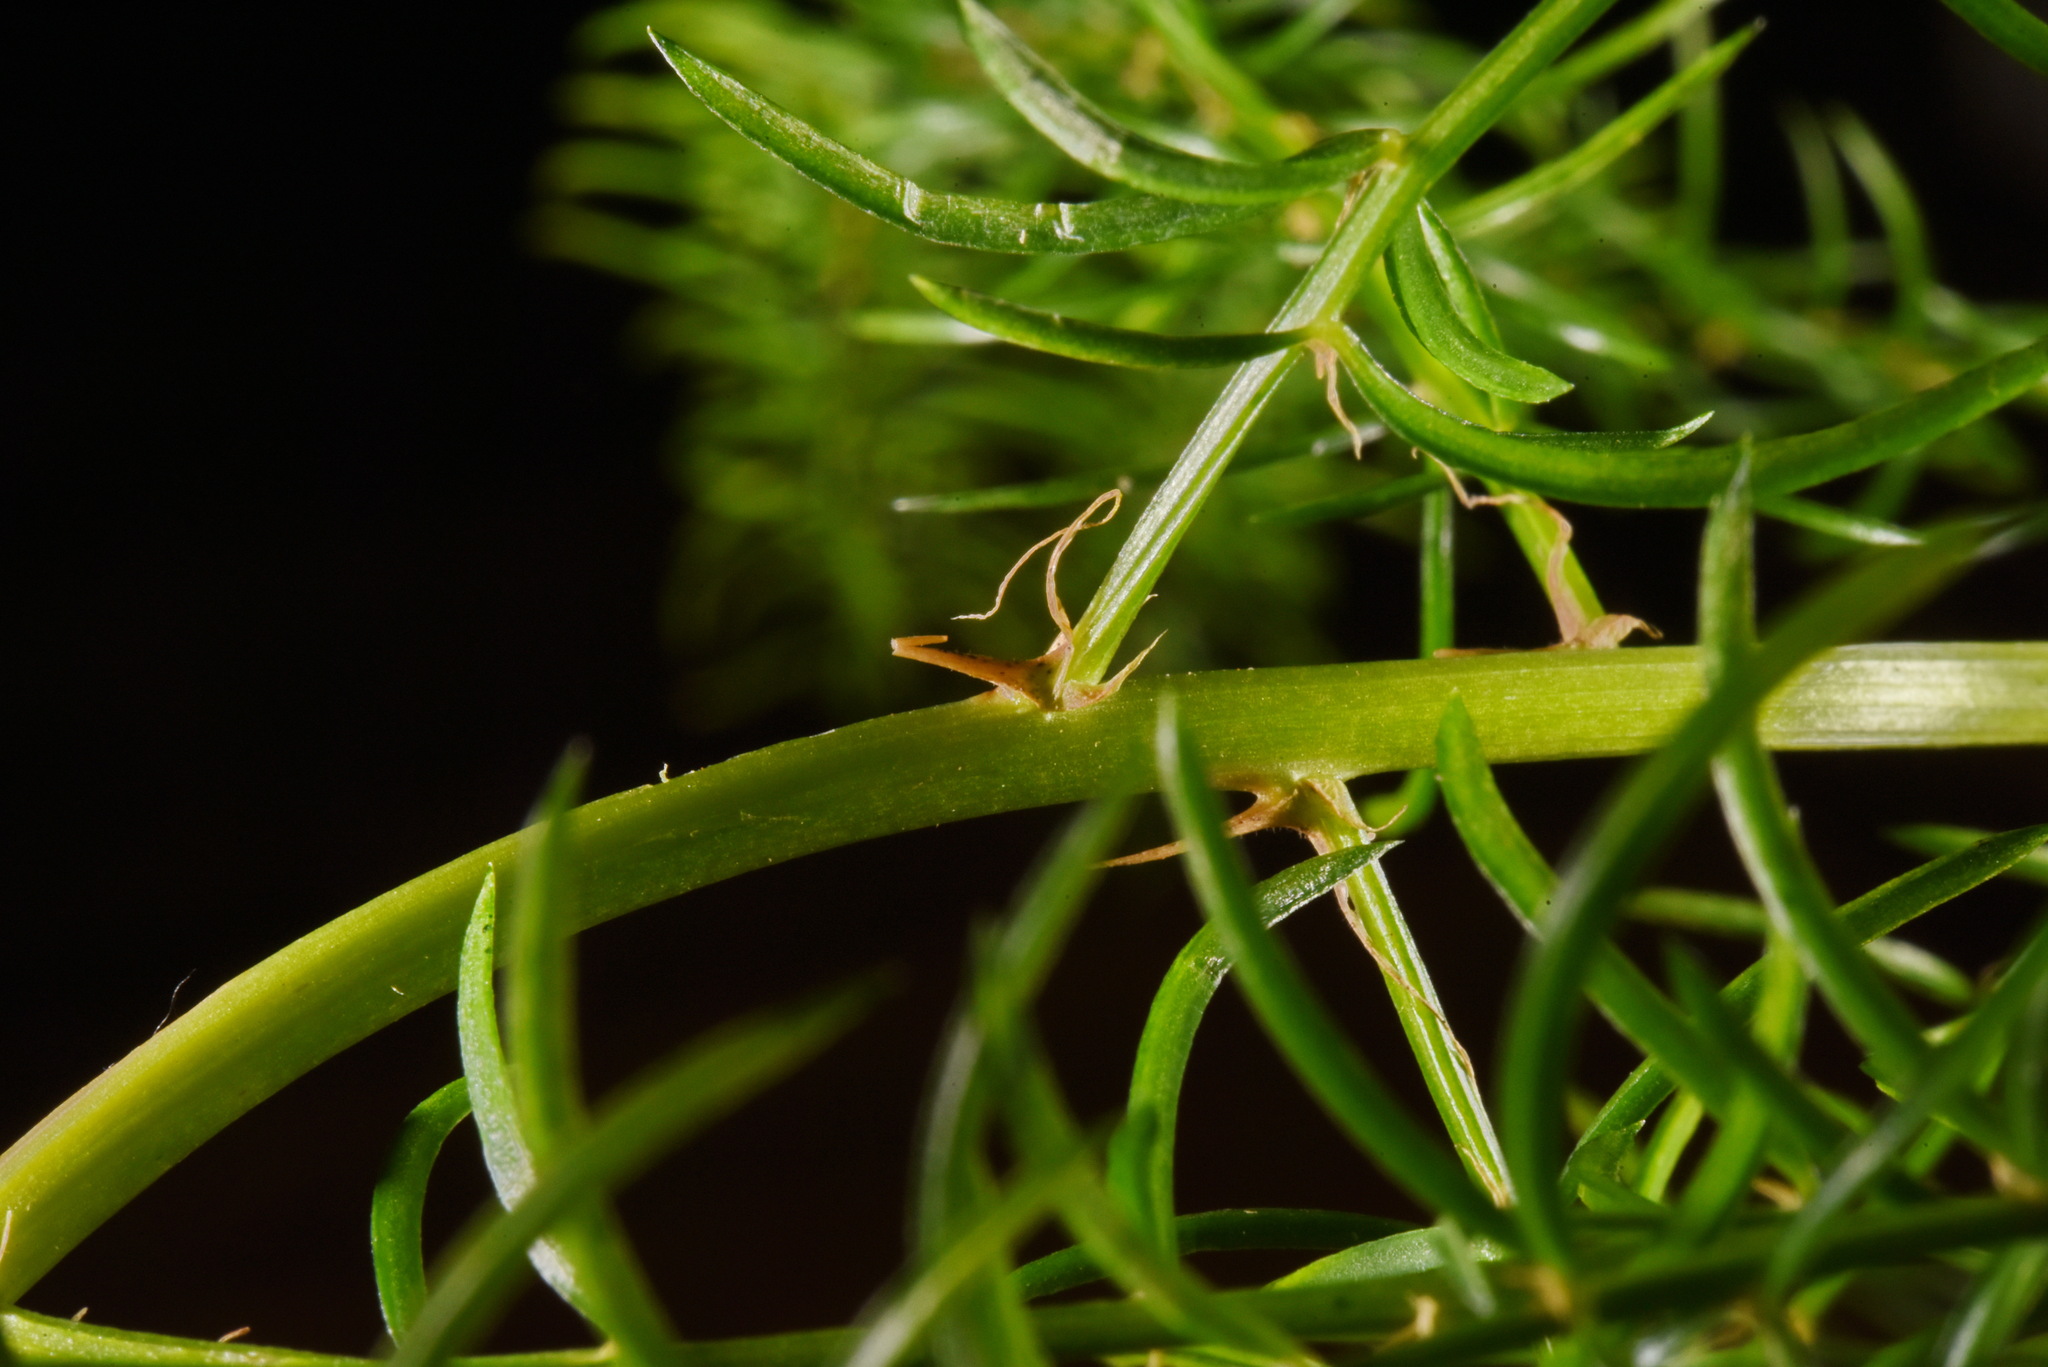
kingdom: Plantae
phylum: Tracheophyta
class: Liliopsida
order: Asparagales
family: Asparagaceae
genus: Asparagus
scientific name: Asparagus cochinchinensis
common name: Chinese asparagus
